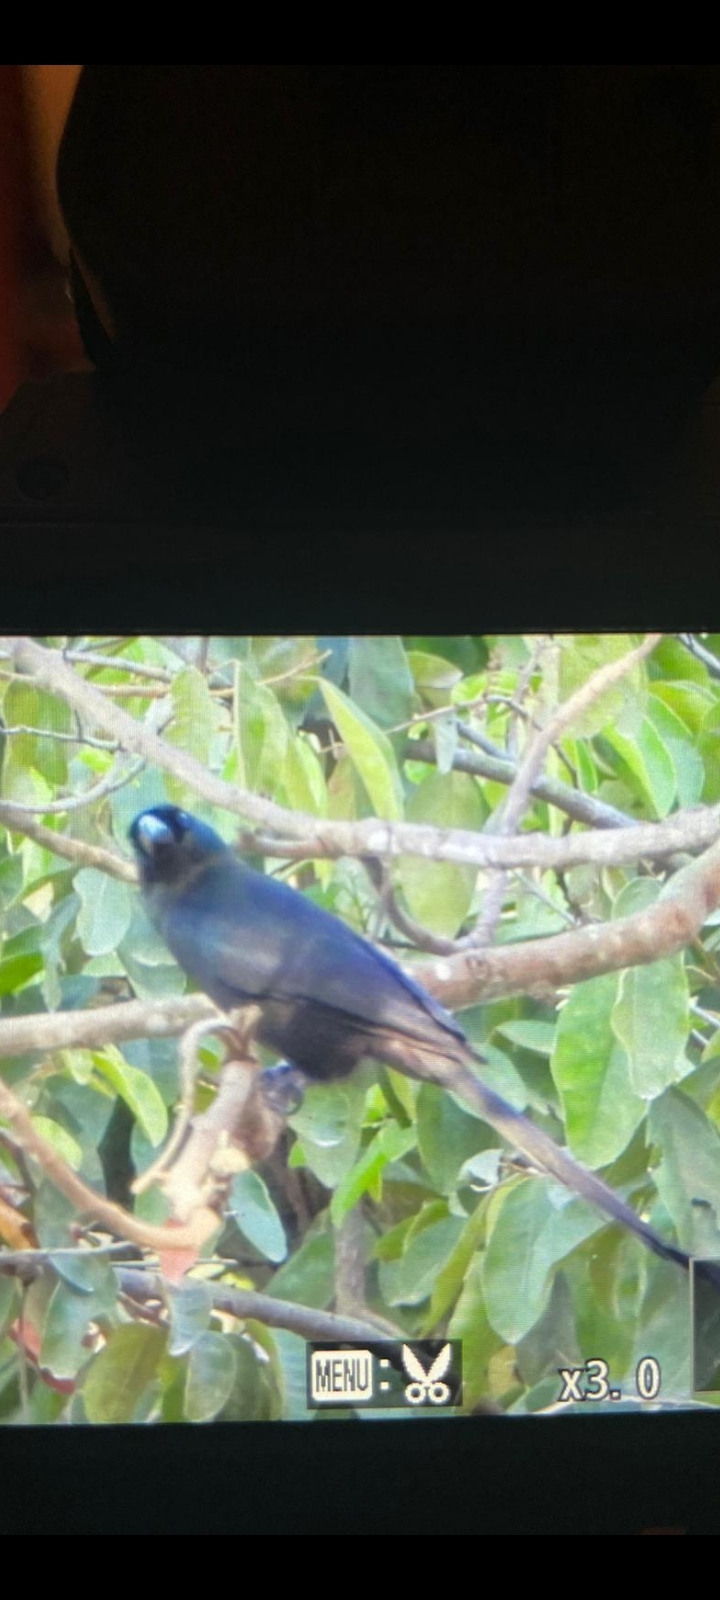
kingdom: Animalia
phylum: Chordata
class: Aves
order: Passeriformes
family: Corvidae
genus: Crypsirina
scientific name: Crypsirina temia
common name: Racket-tailed treepie
